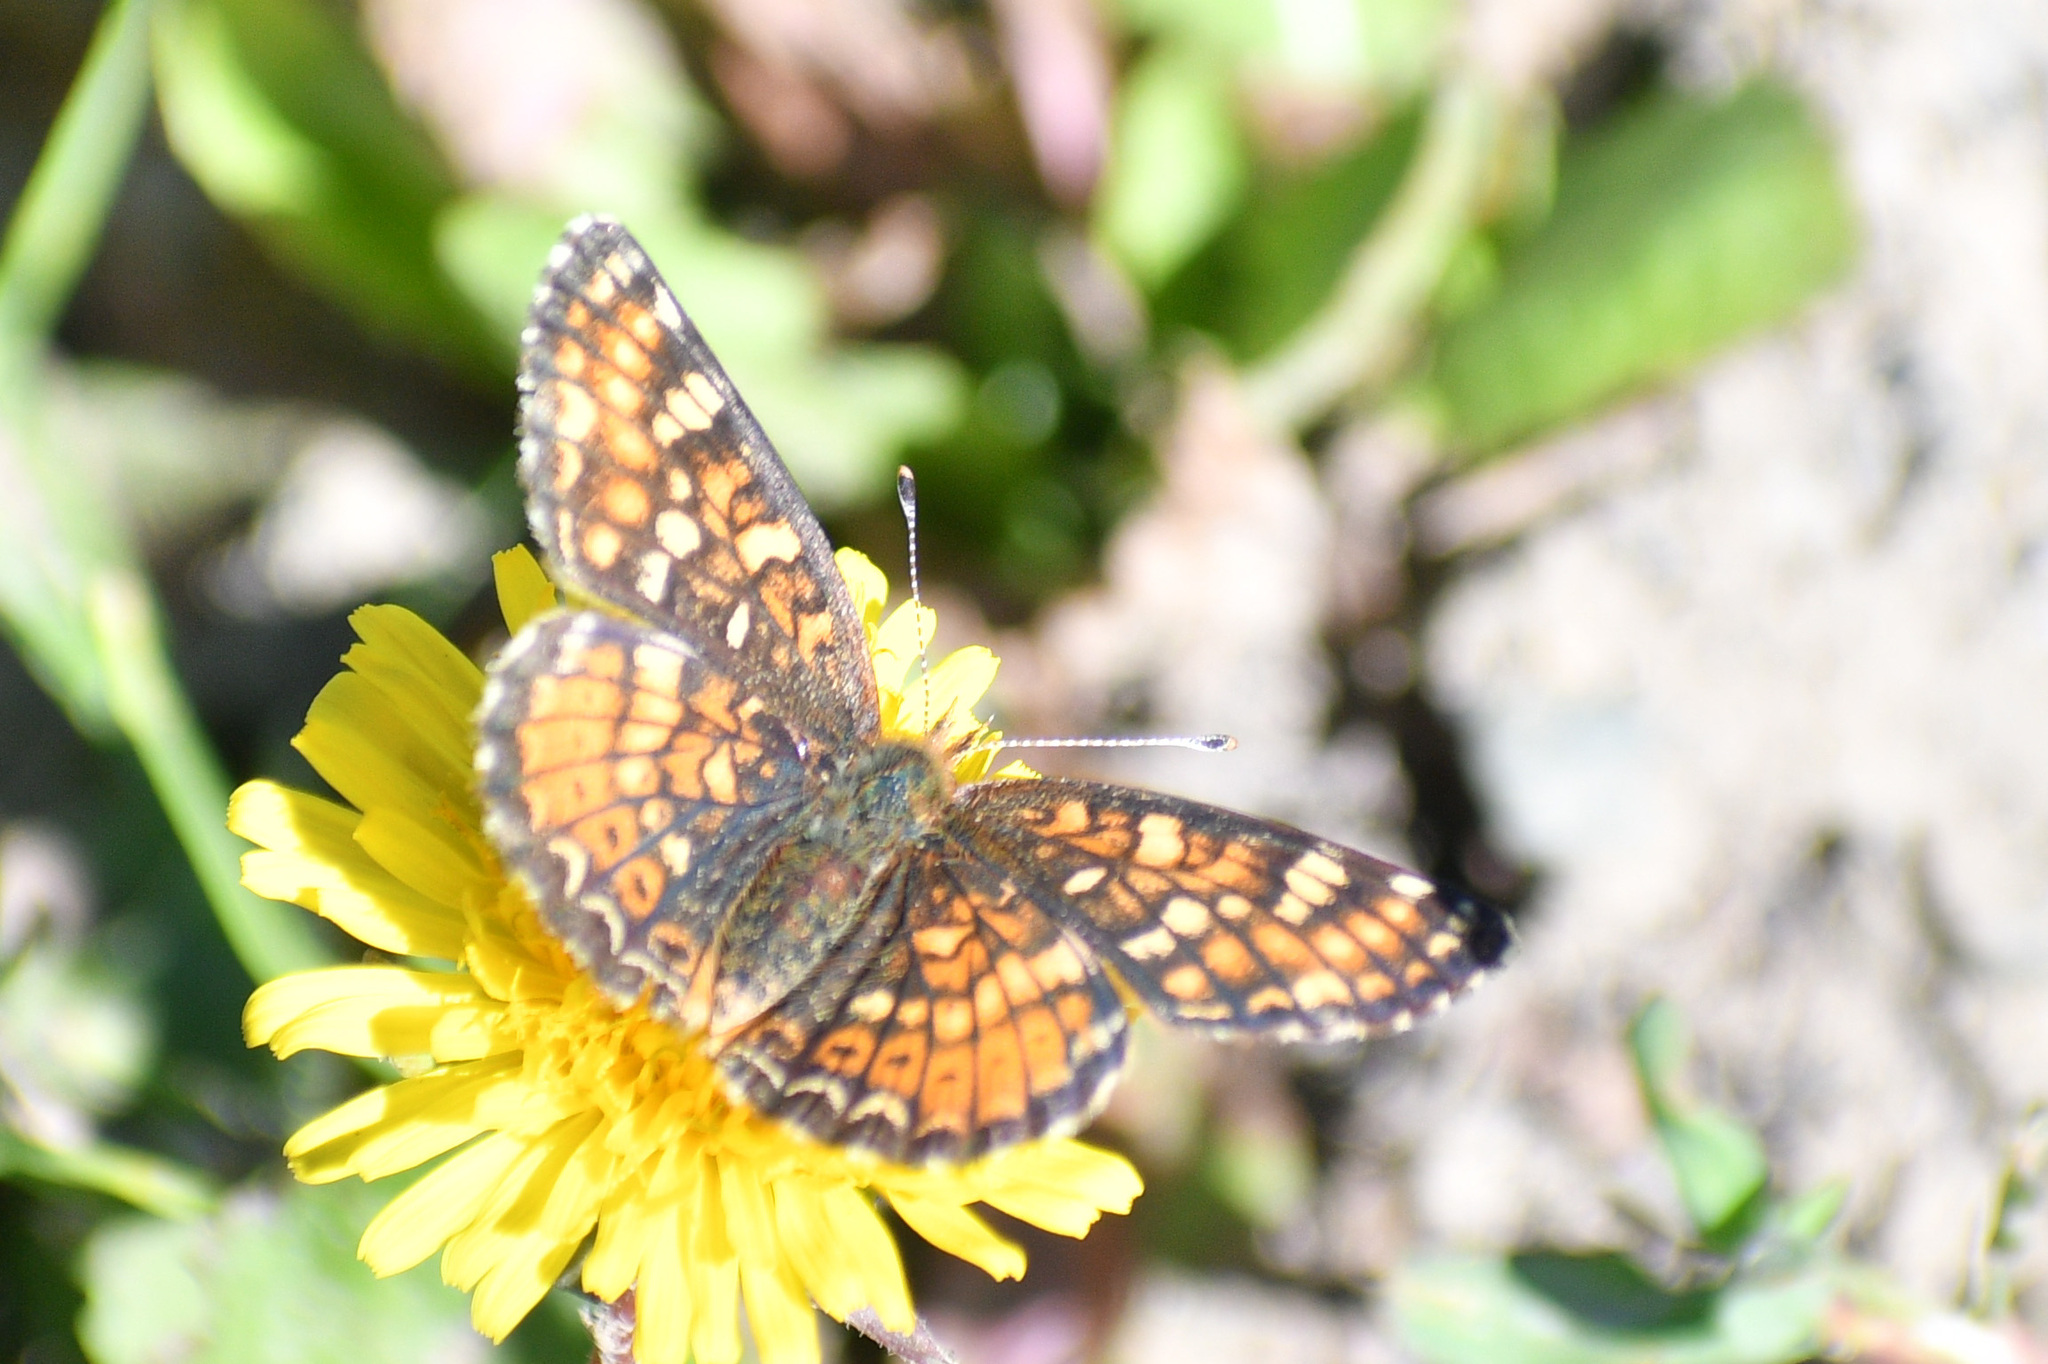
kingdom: Animalia
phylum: Arthropoda
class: Insecta
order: Lepidoptera
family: Nymphalidae
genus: Phyciodes
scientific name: Phyciodes tharos
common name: Pearl crescent
